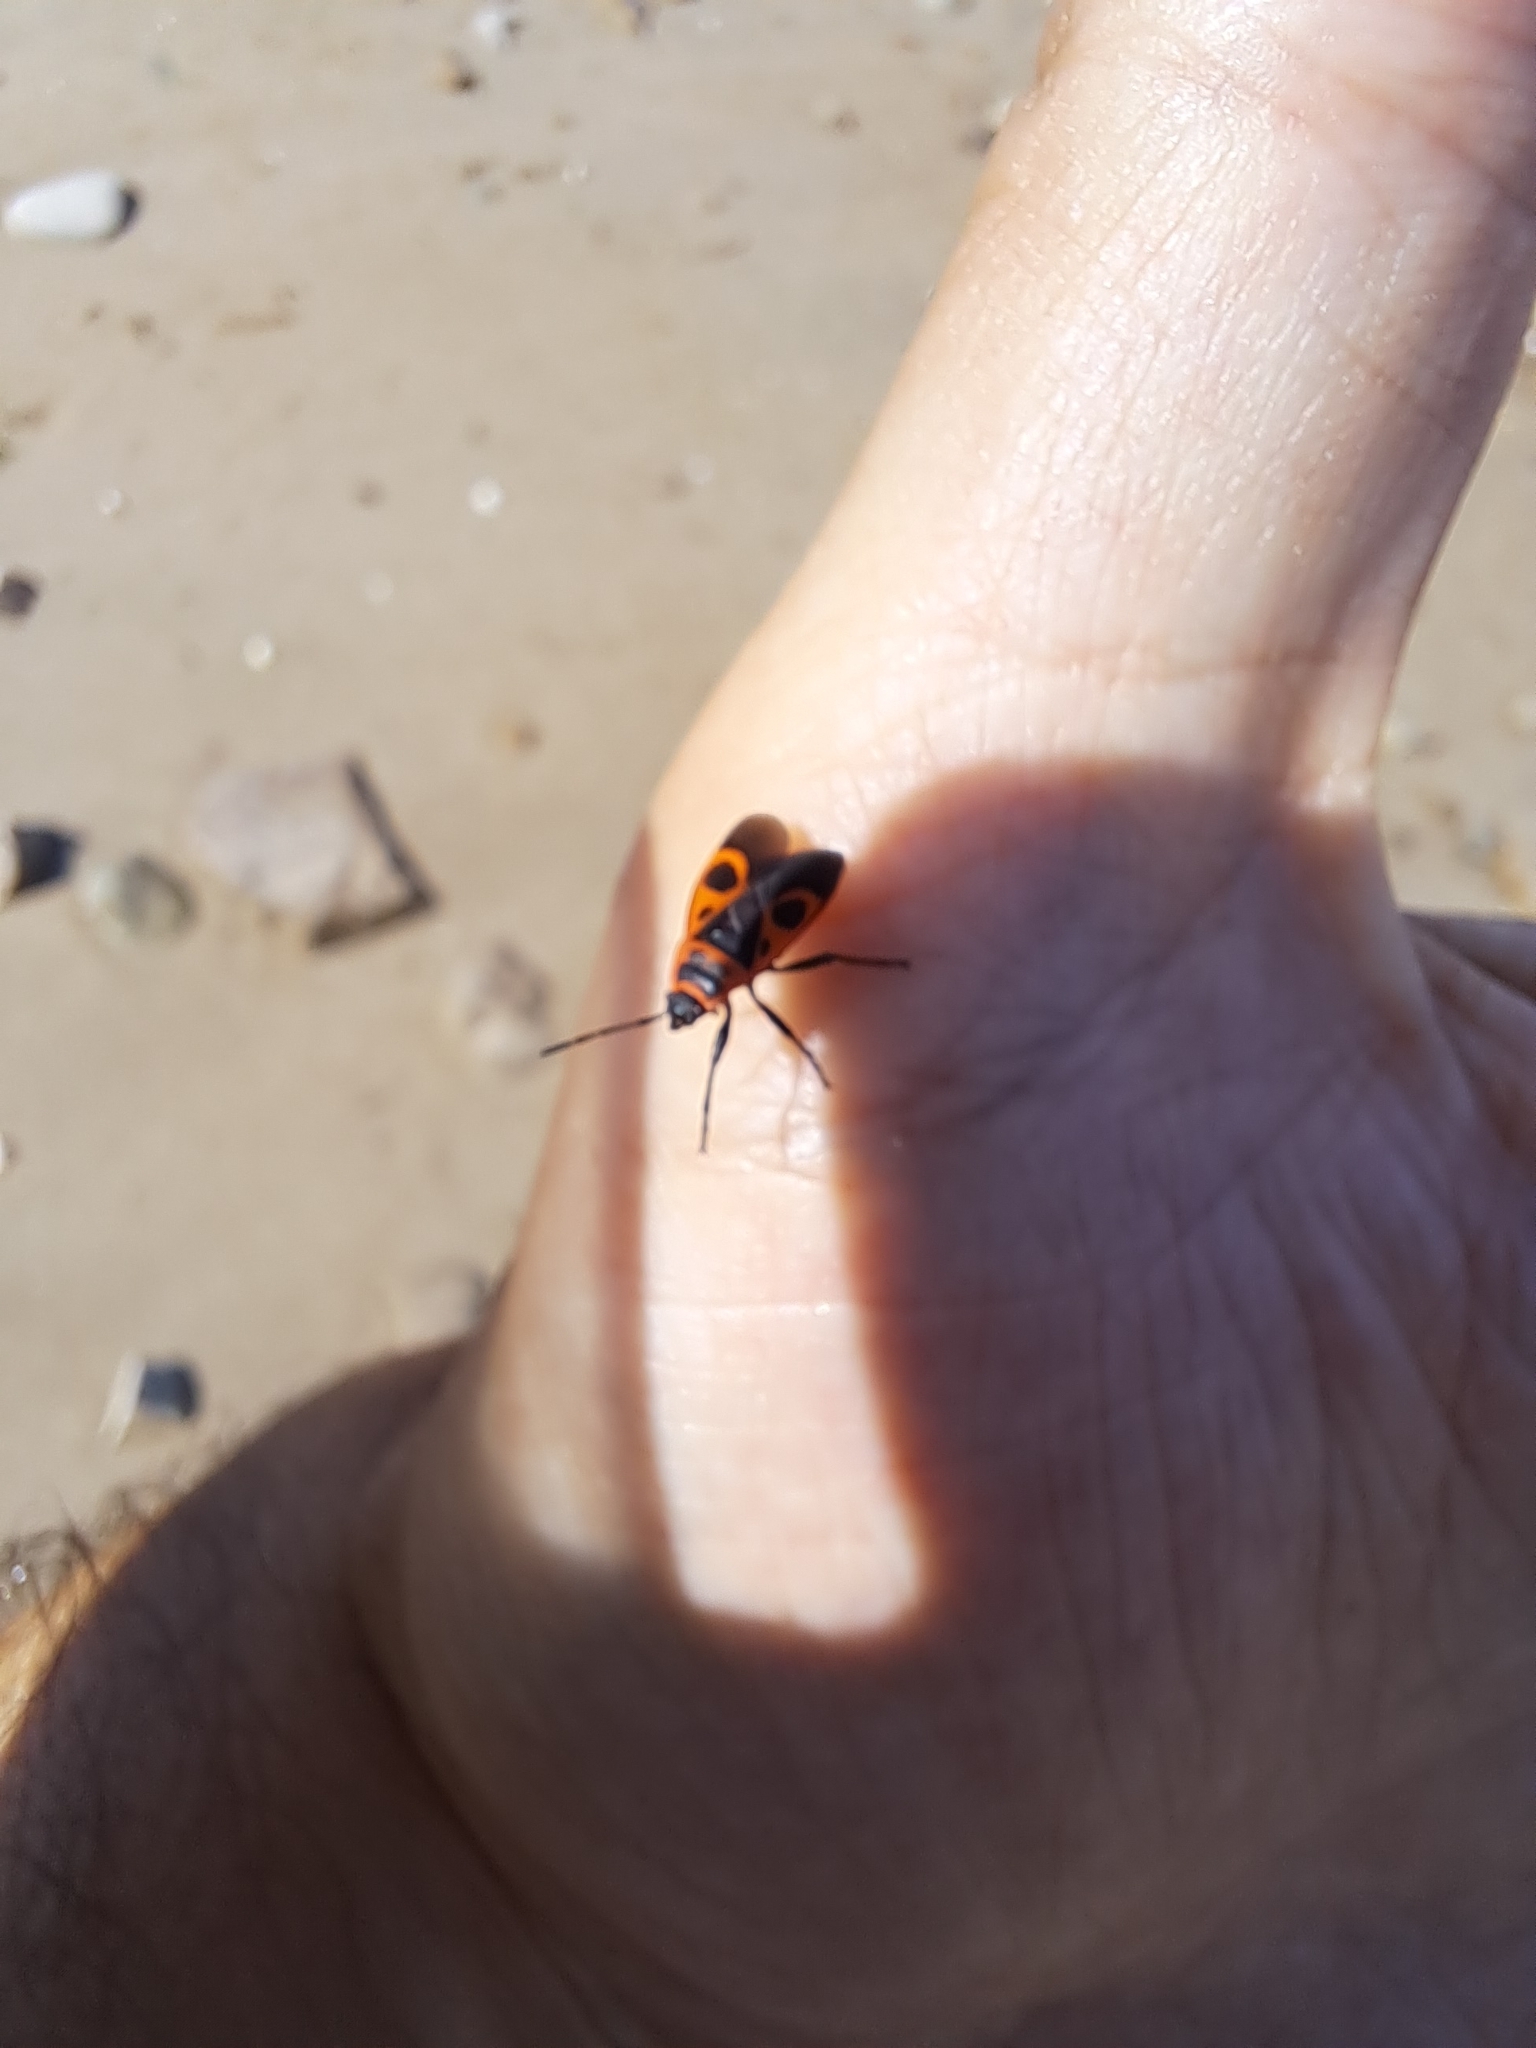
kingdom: Animalia
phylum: Arthropoda
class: Insecta
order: Hemiptera
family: Pyrrhocoridae
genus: Pyrrhocoris
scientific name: Pyrrhocoris apterus
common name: Firebug
